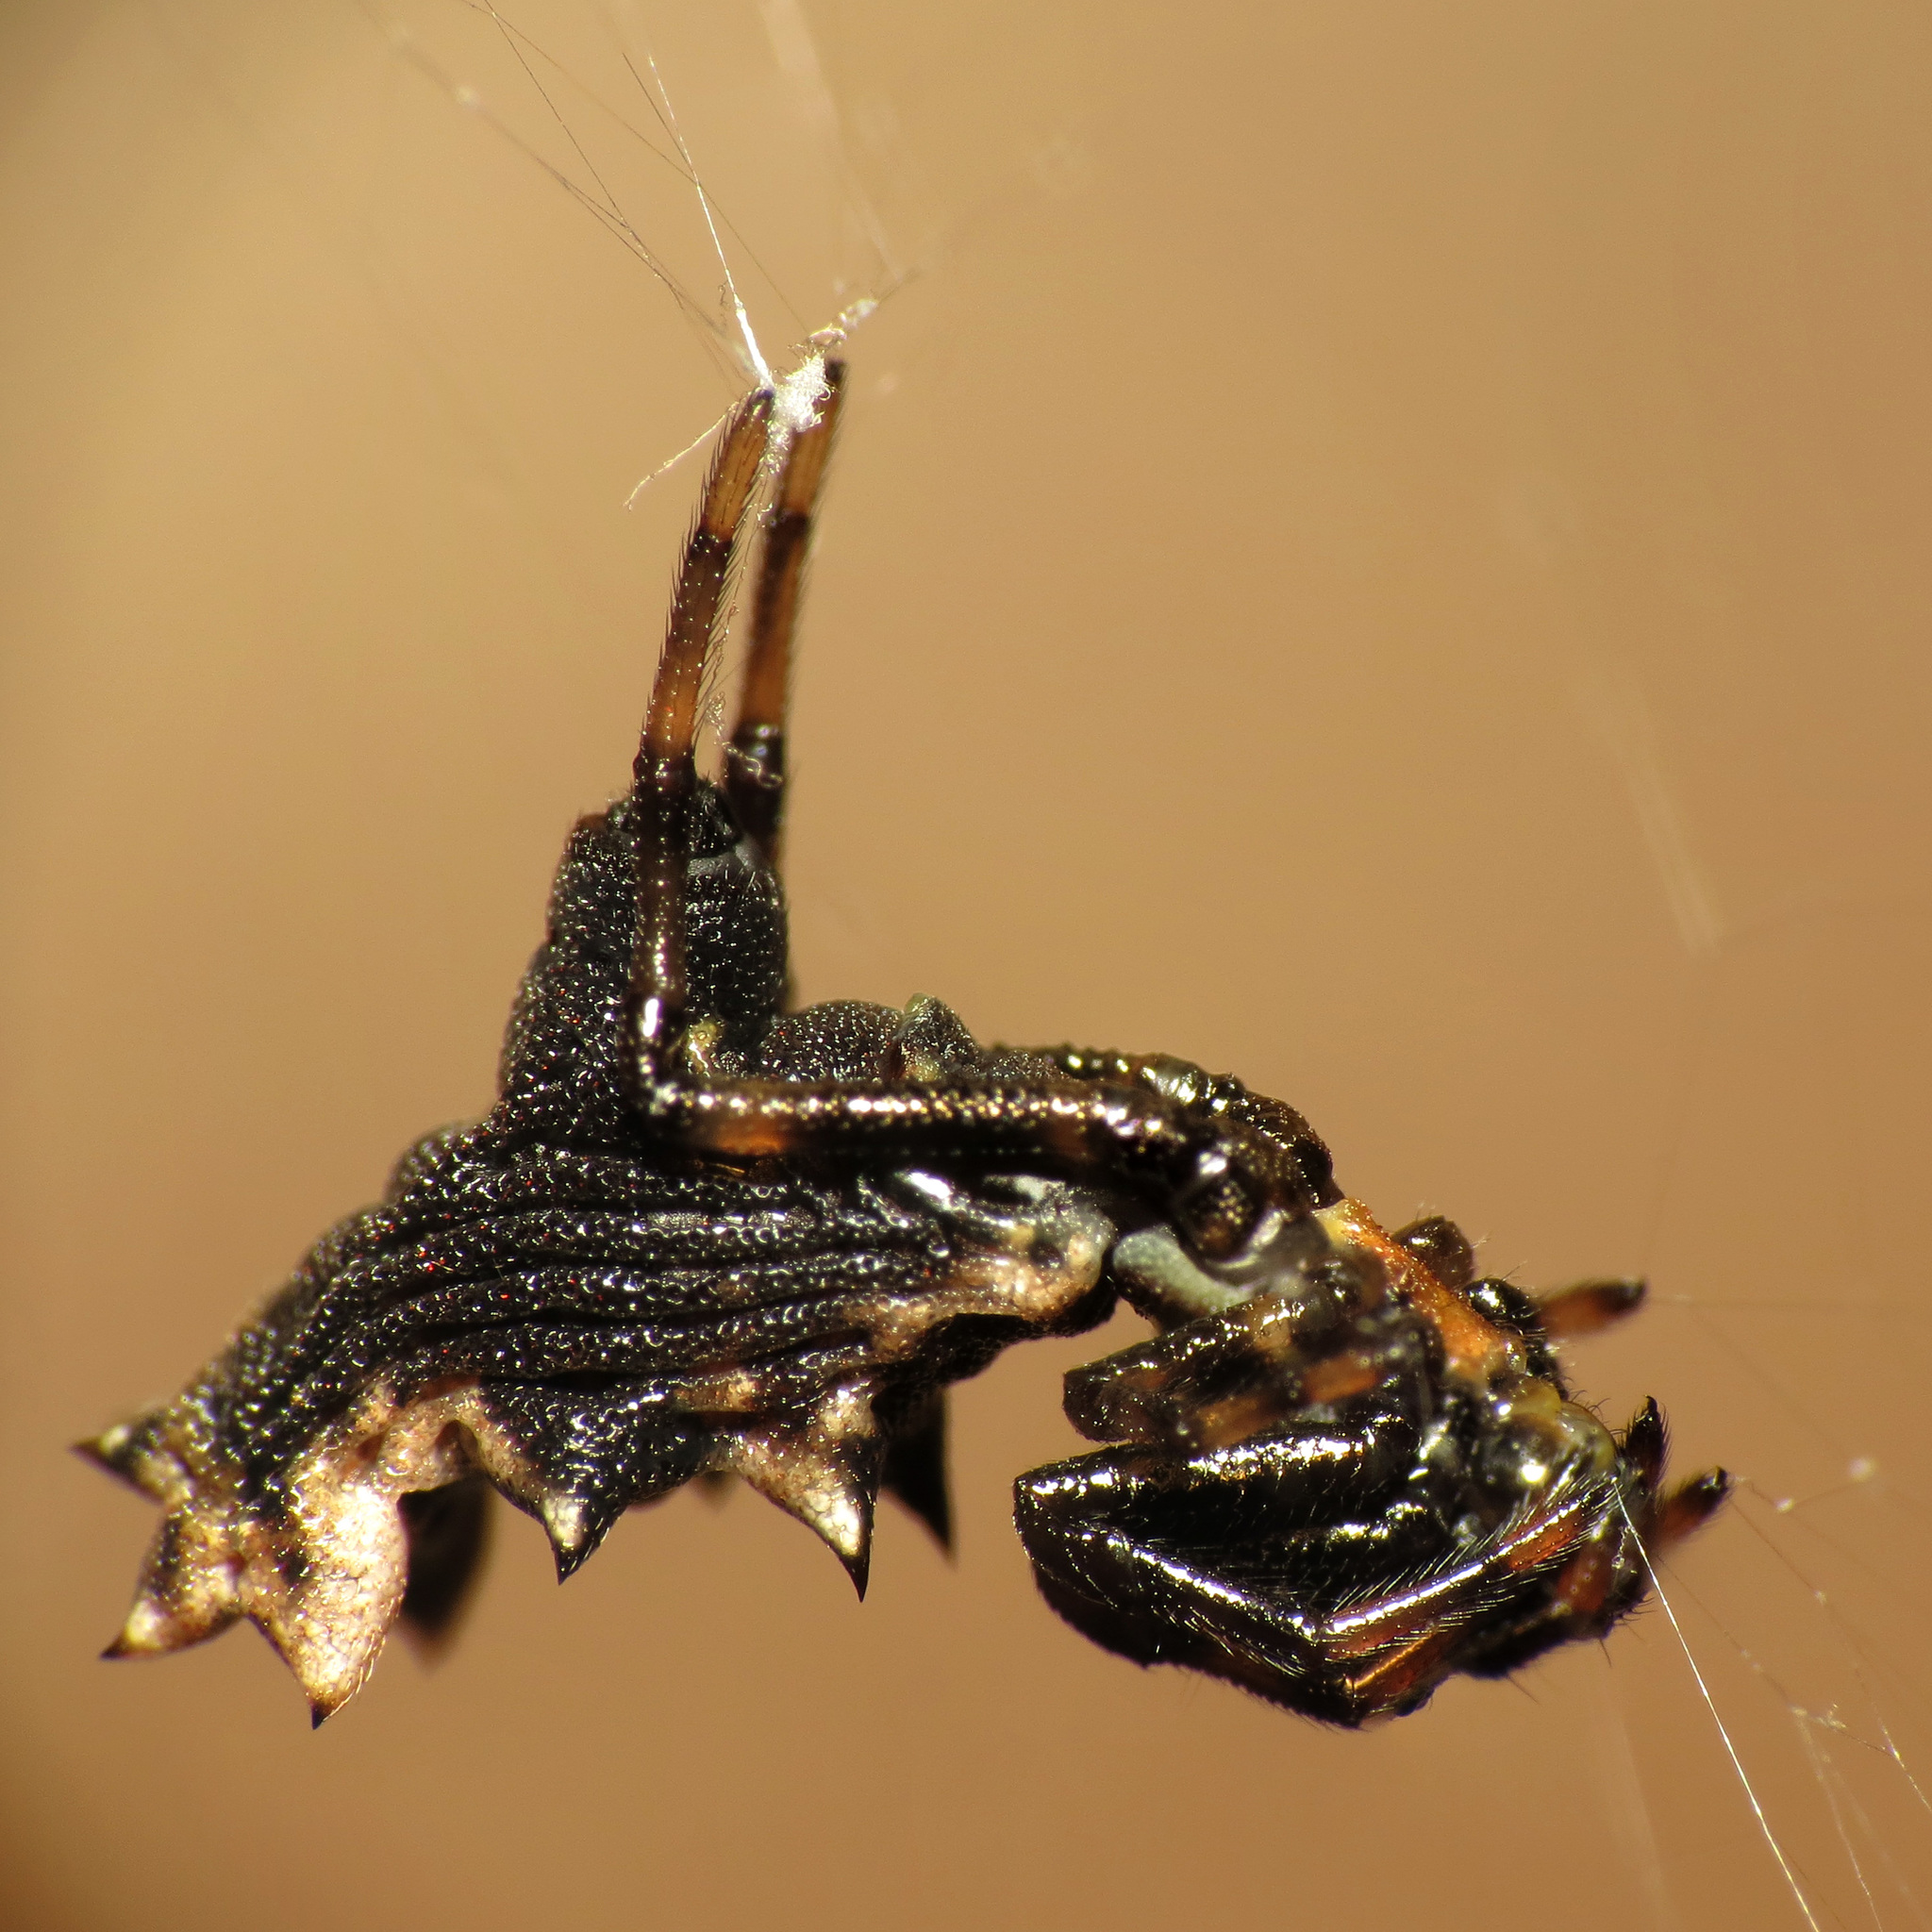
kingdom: Animalia
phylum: Arthropoda
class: Arachnida
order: Araneae
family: Araneidae
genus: Micrathena
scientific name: Micrathena gracilis
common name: Orb weavers
